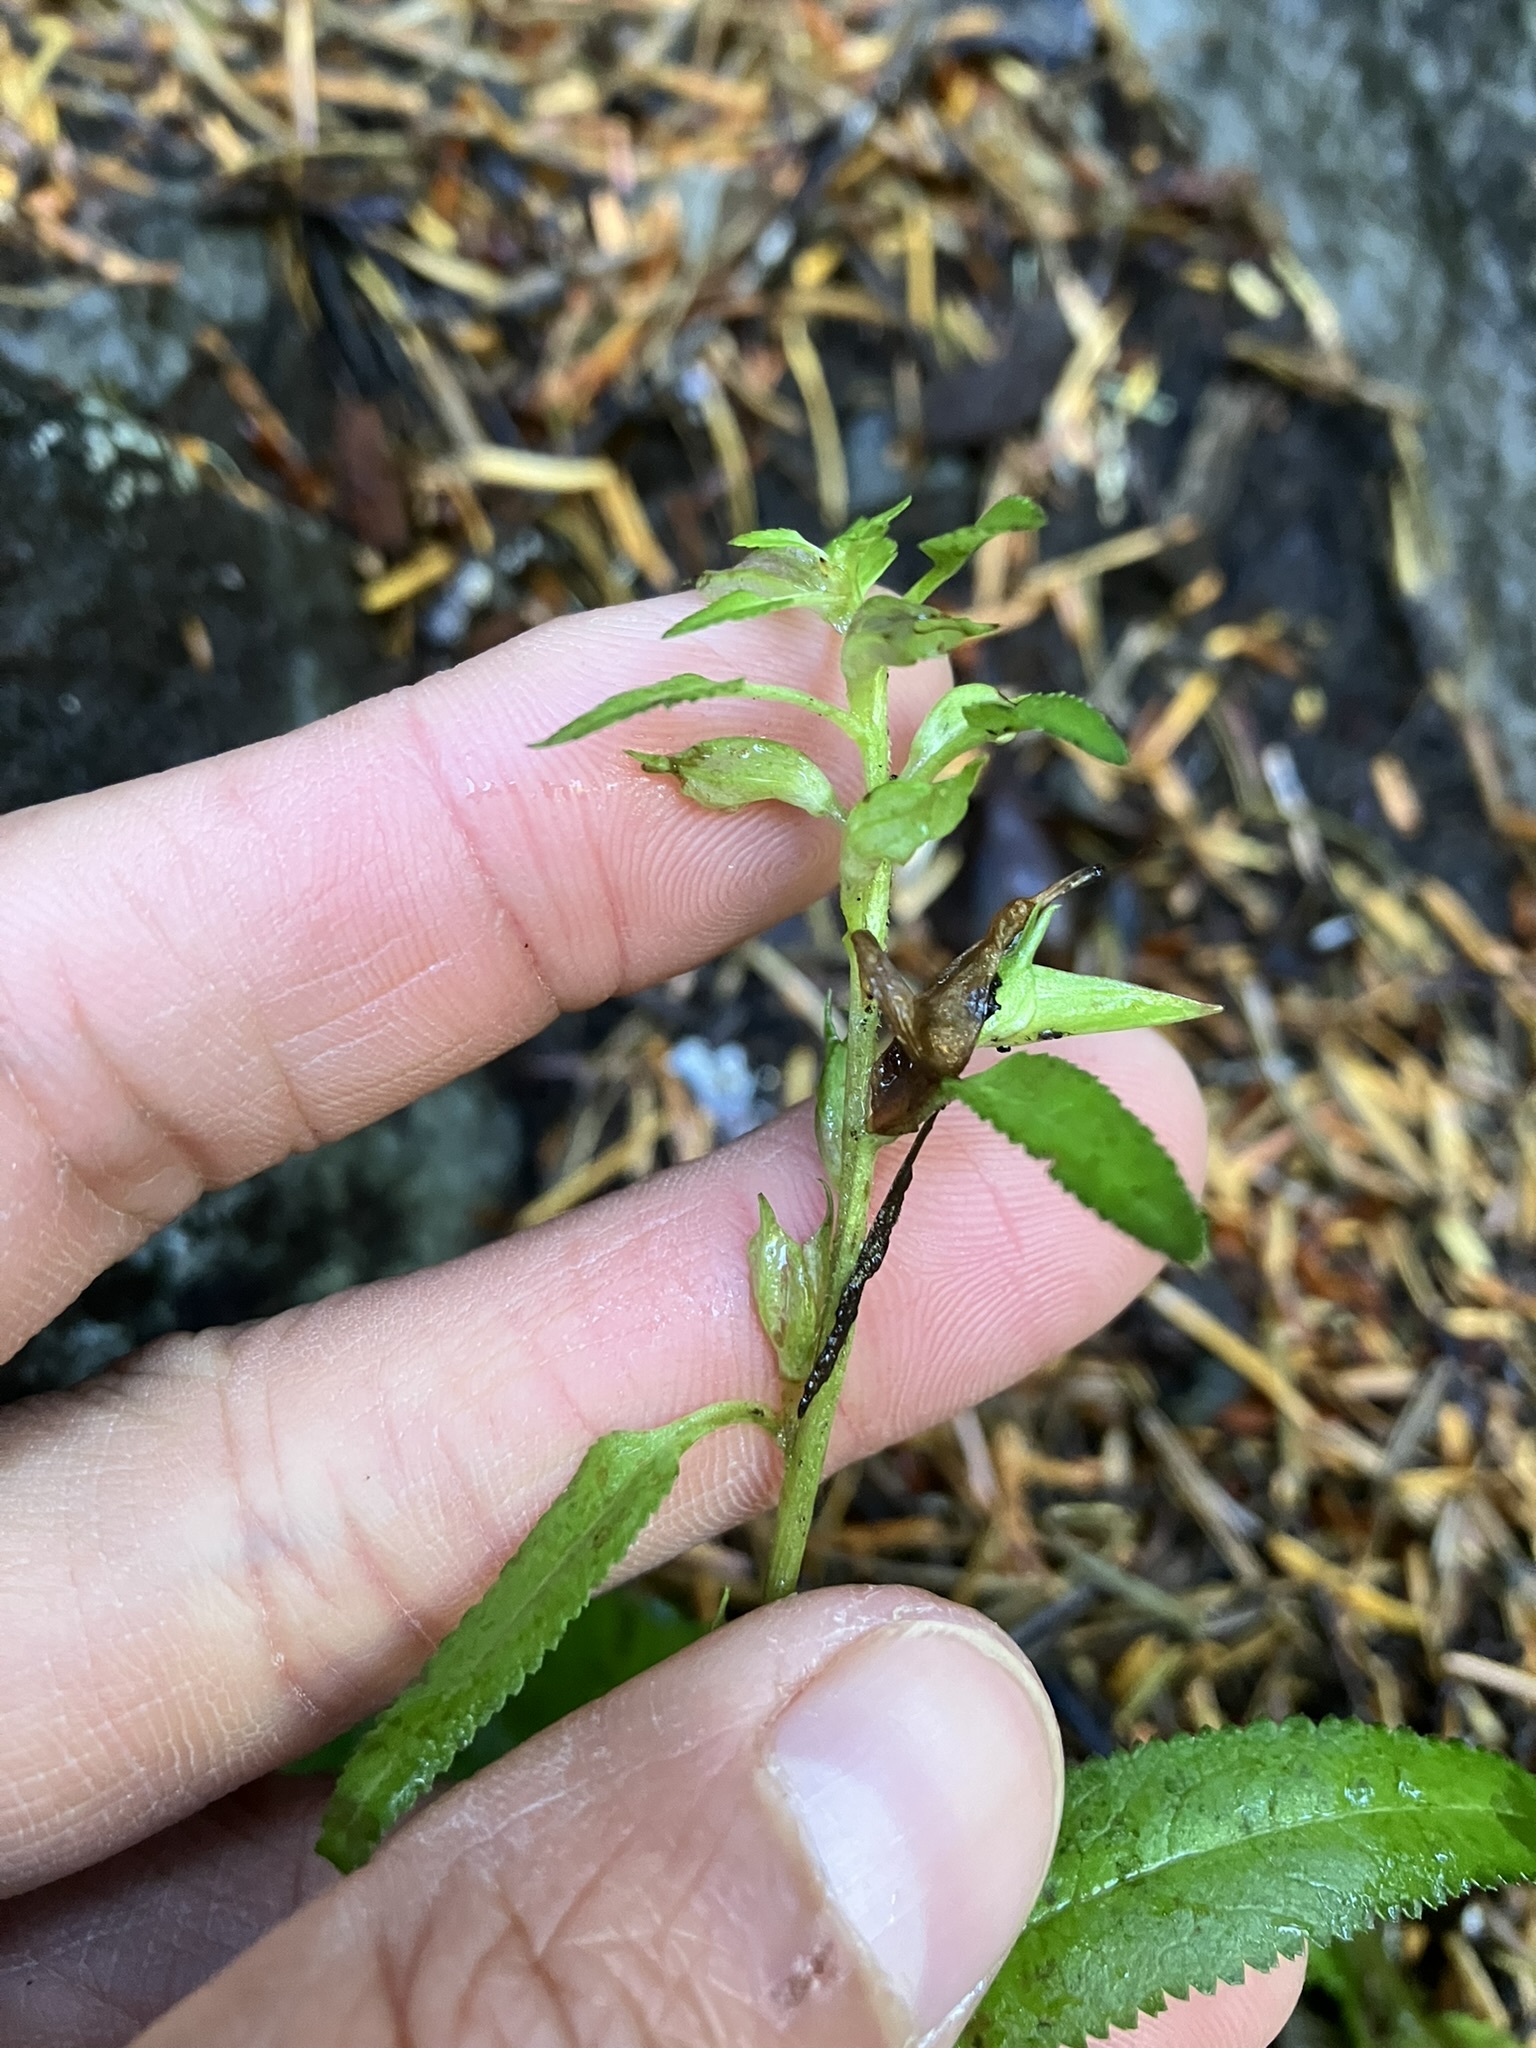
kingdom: Plantae
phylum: Tracheophyta
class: Magnoliopsida
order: Lamiales
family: Orobanchaceae
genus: Pedicularis
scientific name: Pedicularis racemosa
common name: Leafy lousewort
